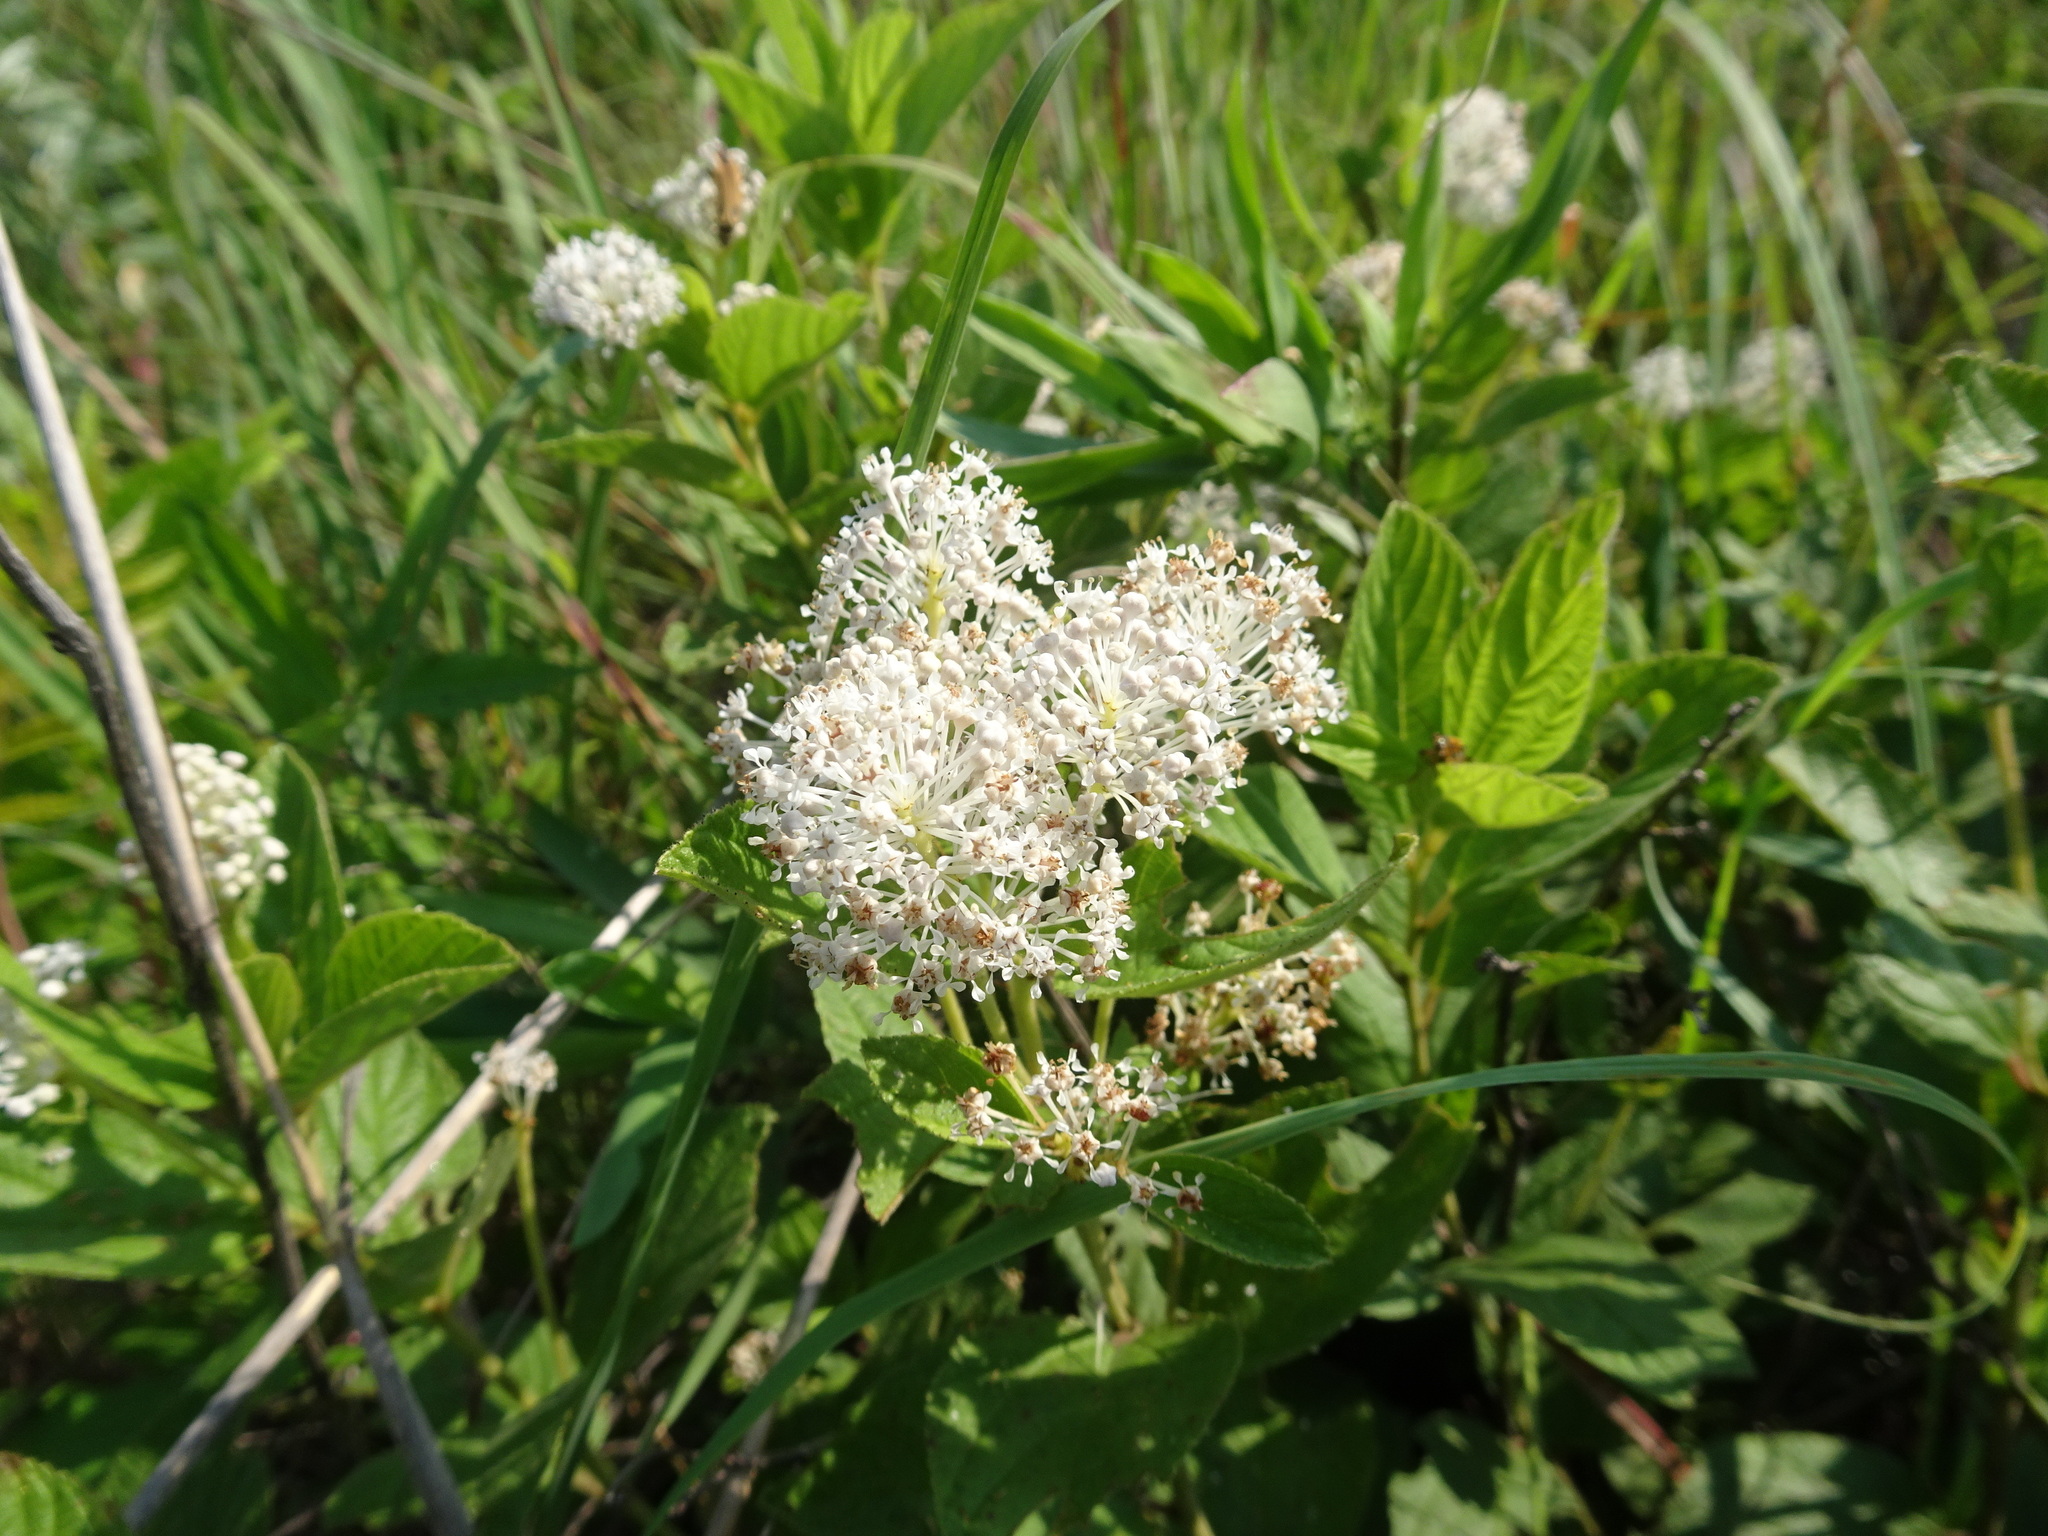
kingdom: Plantae
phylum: Tracheophyta
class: Magnoliopsida
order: Rosales
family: Rhamnaceae
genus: Ceanothus
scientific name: Ceanothus americanus
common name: Redroot
